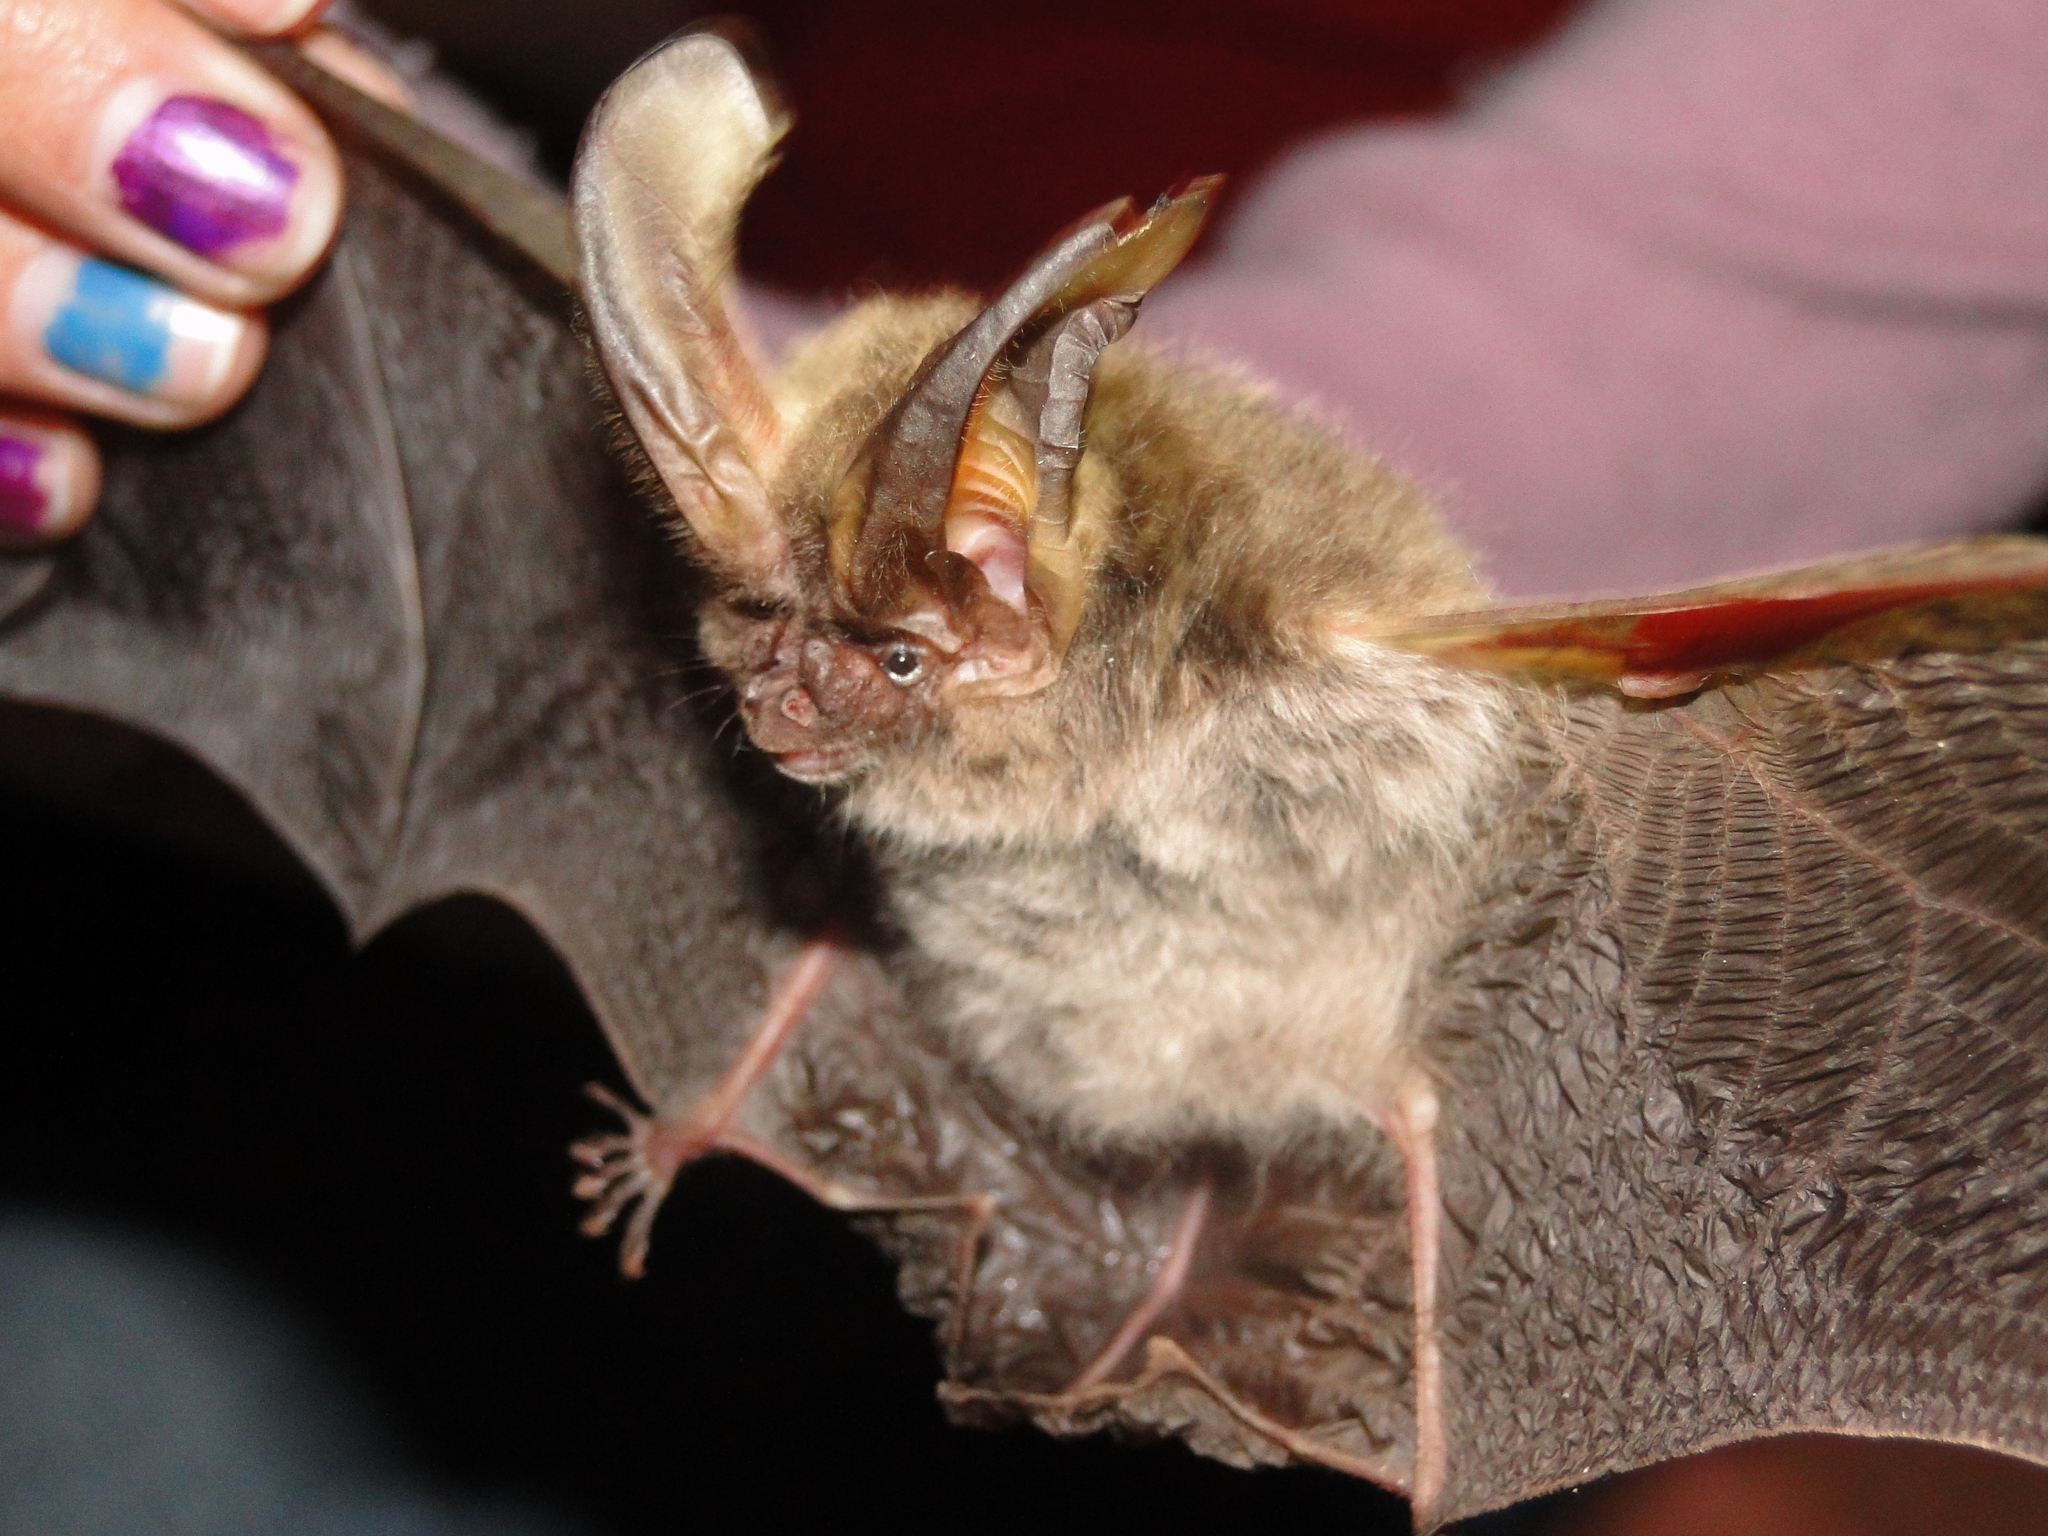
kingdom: Animalia
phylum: Chordata
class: Mammalia
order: Chiroptera
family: Vespertilionidae
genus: Corynorhinus
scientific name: Corynorhinus mexicanus
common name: Mexican big-eared bat
